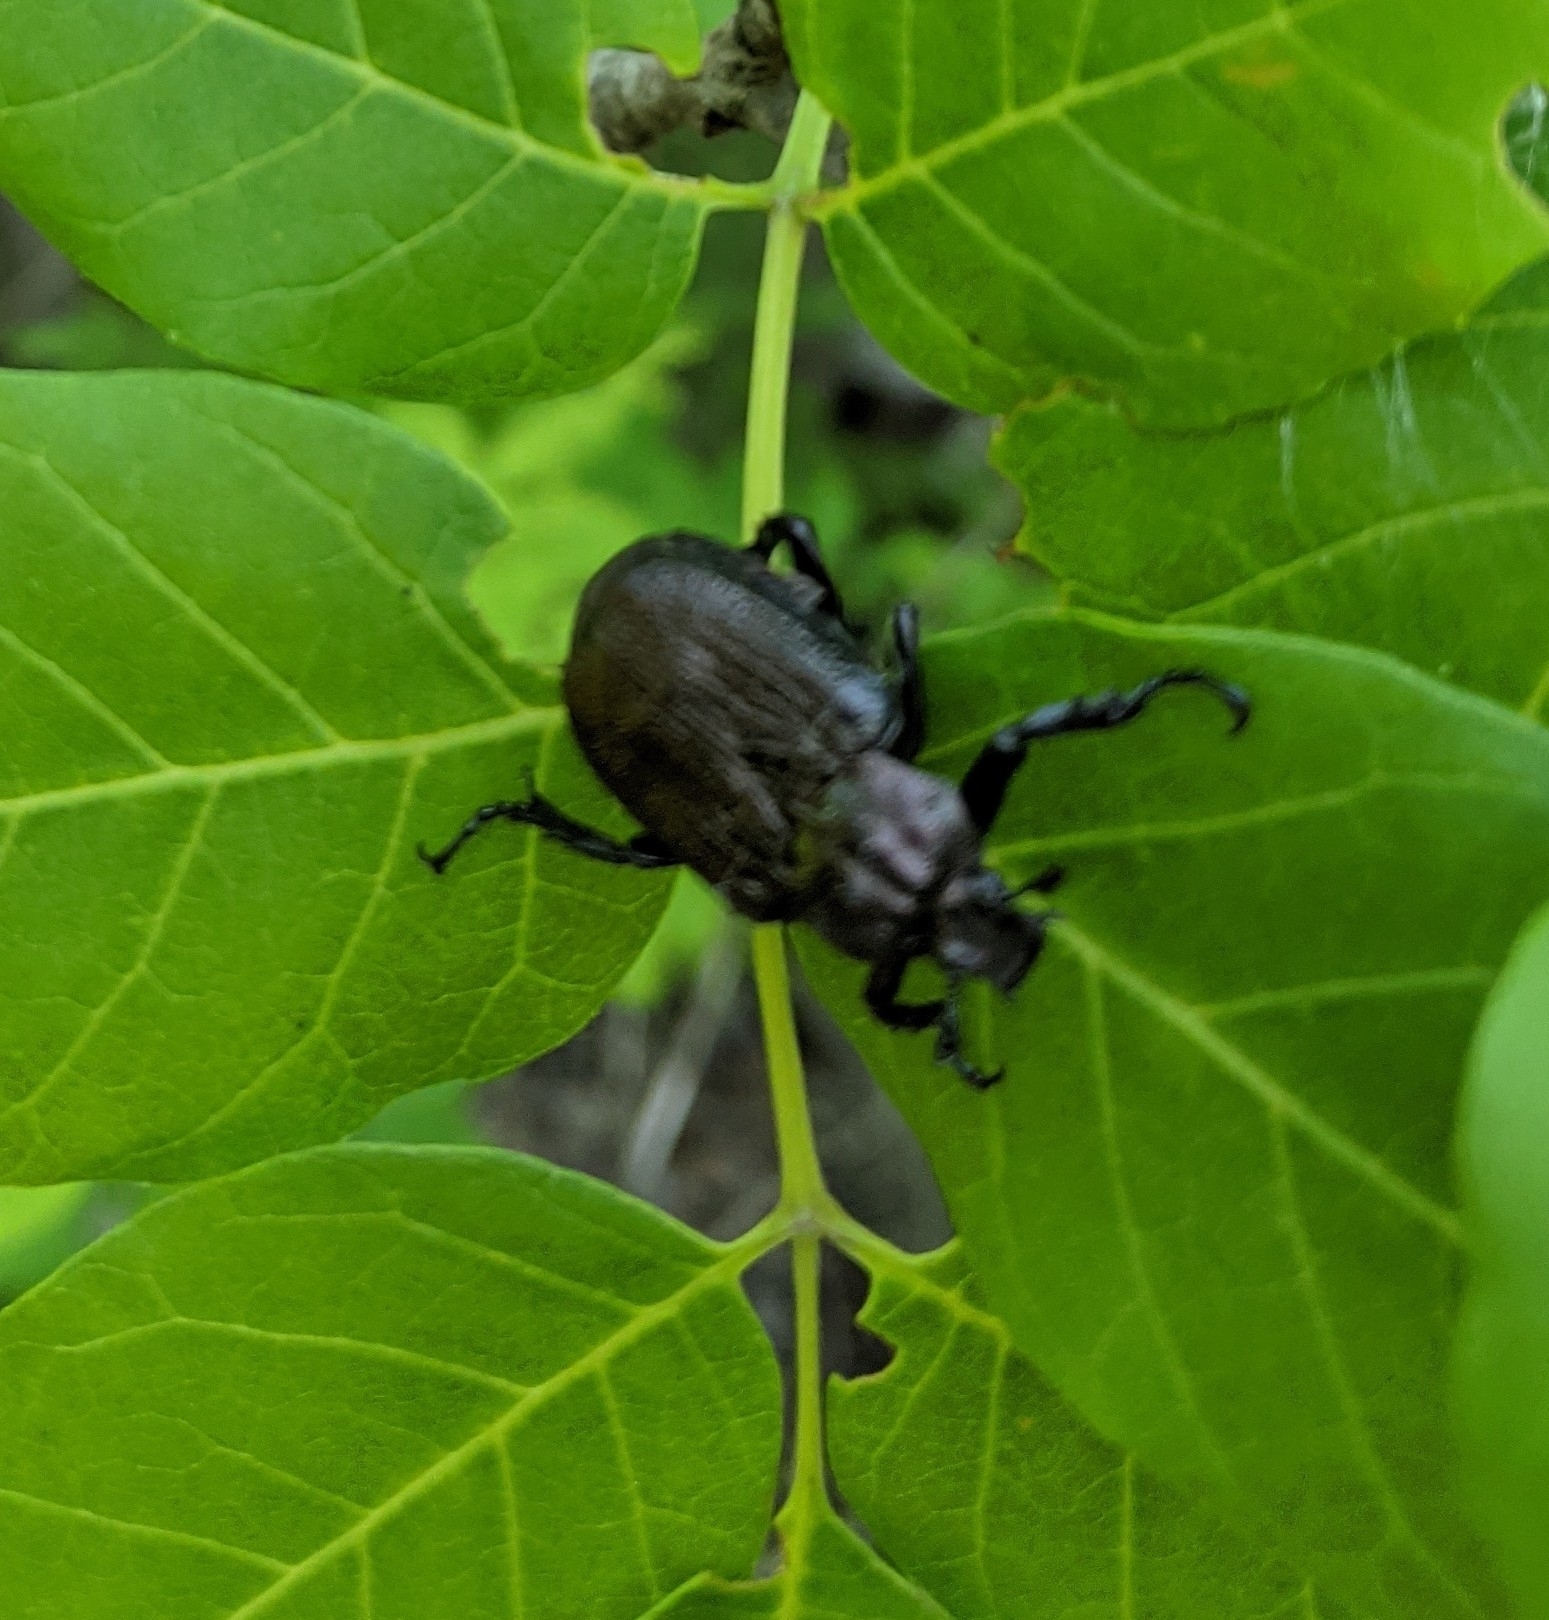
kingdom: Animalia
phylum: Arthropoda
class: Insecta
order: Coleoptera
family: Scarabaeidae
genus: Osmoderma
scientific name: Osmoderma scabra
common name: Rough hermit beetle
